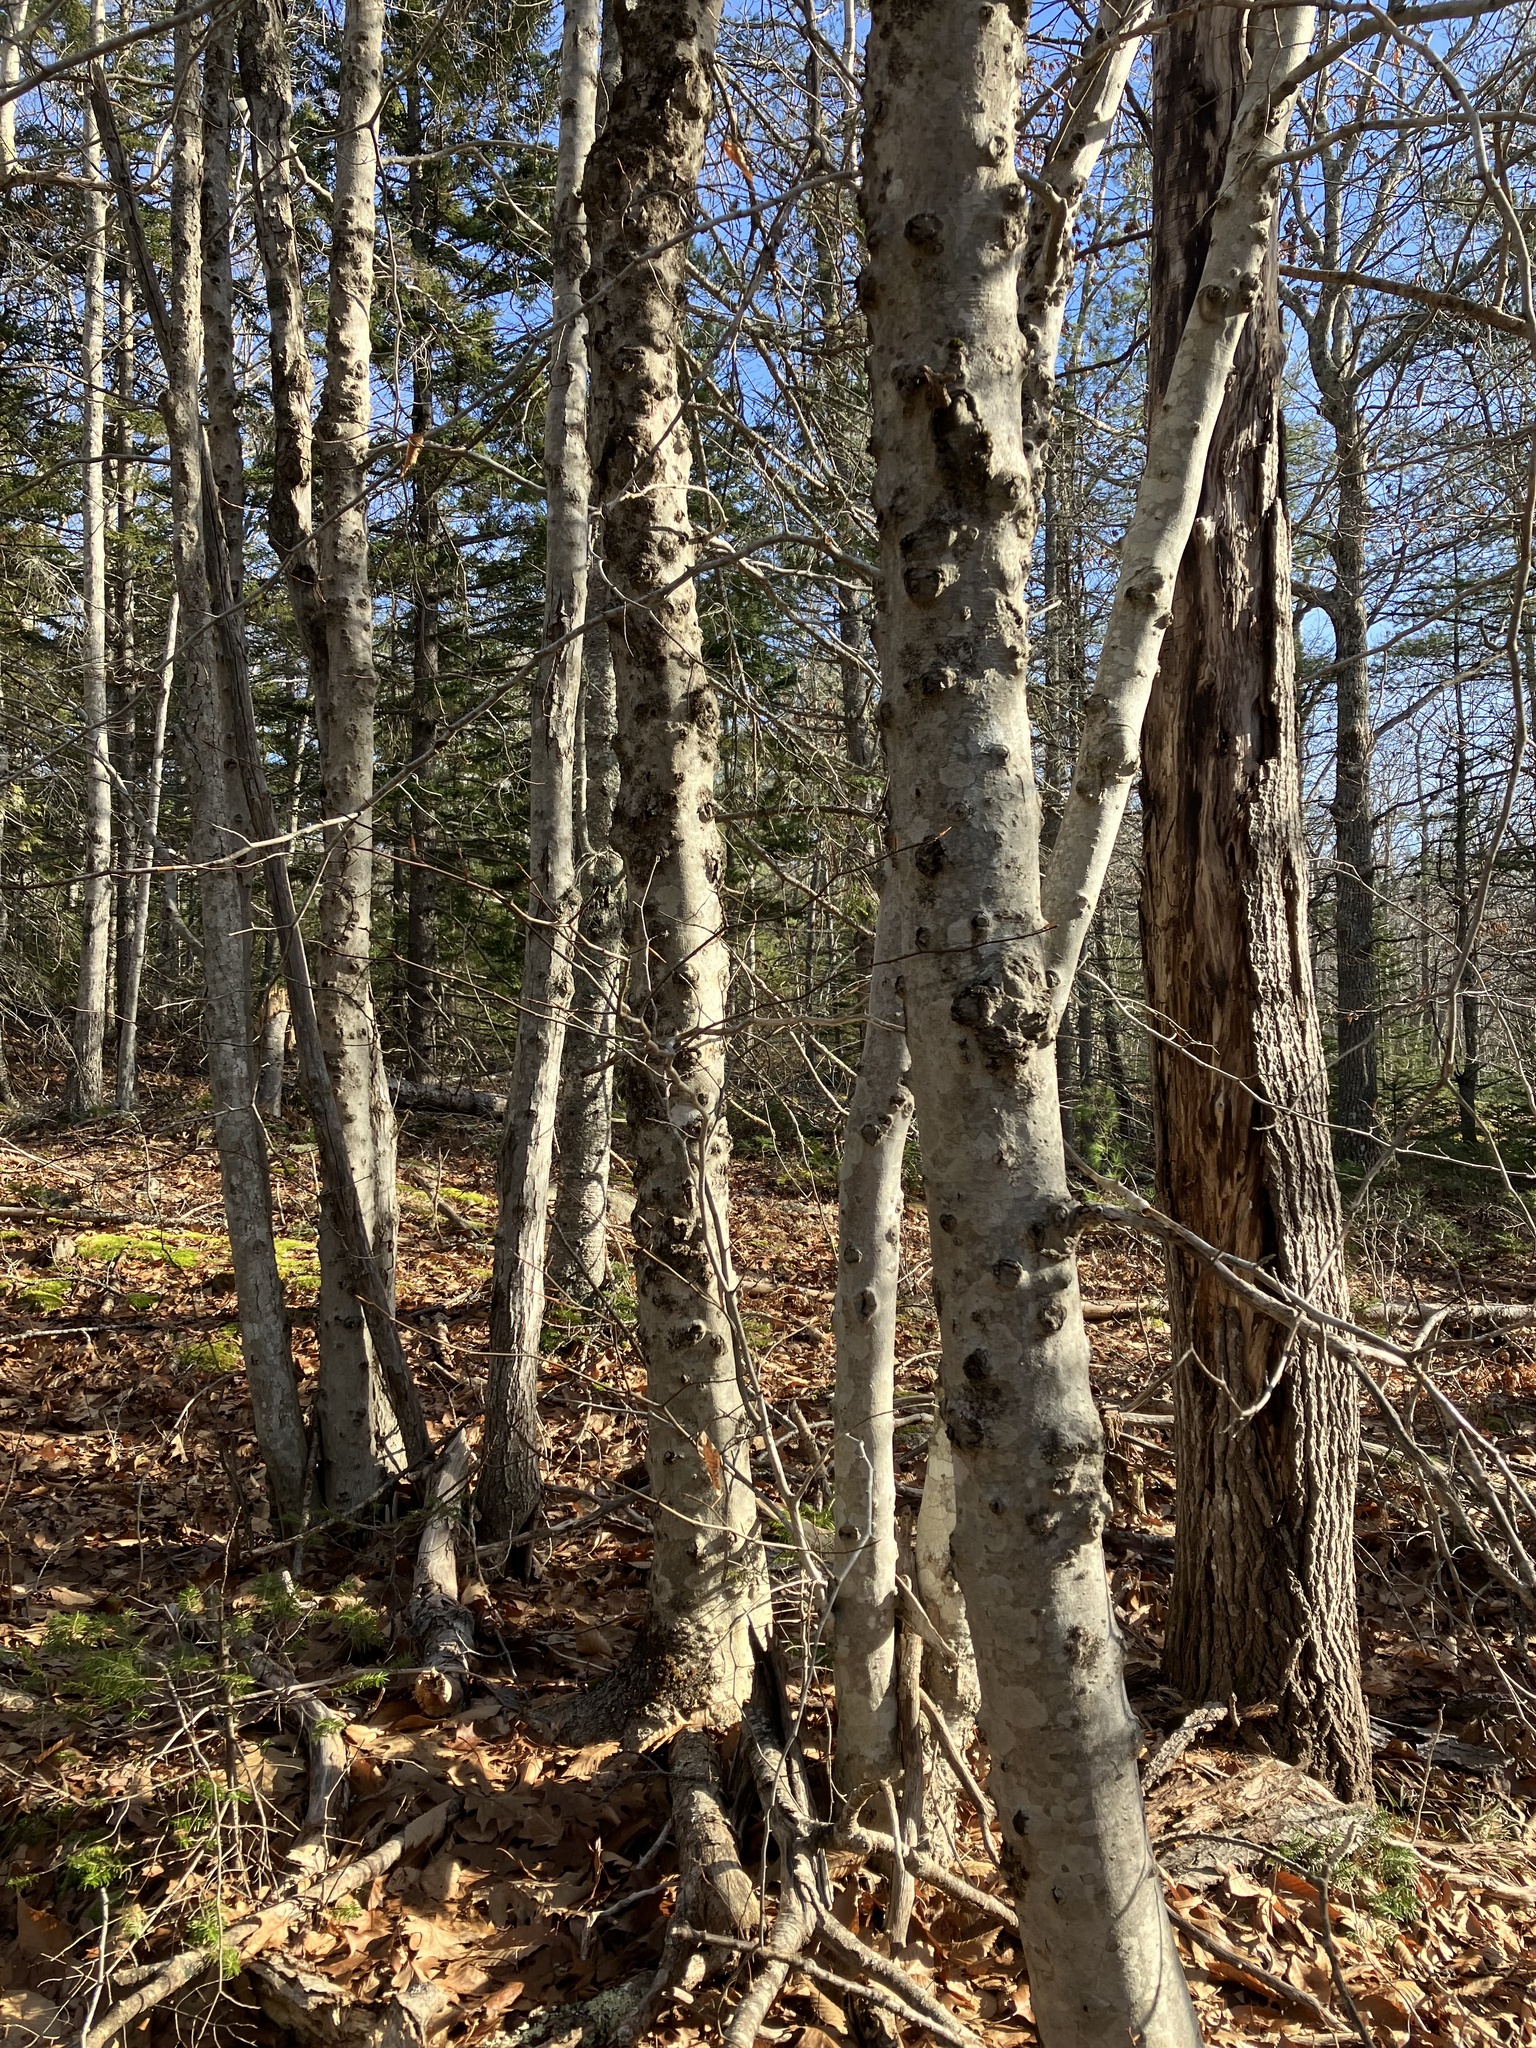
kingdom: Plantae
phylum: Tracheophyta
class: Magnoliopsida
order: Fagales
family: Fagaceae
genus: Fagus
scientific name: Fagus grandifolia
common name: American beech
